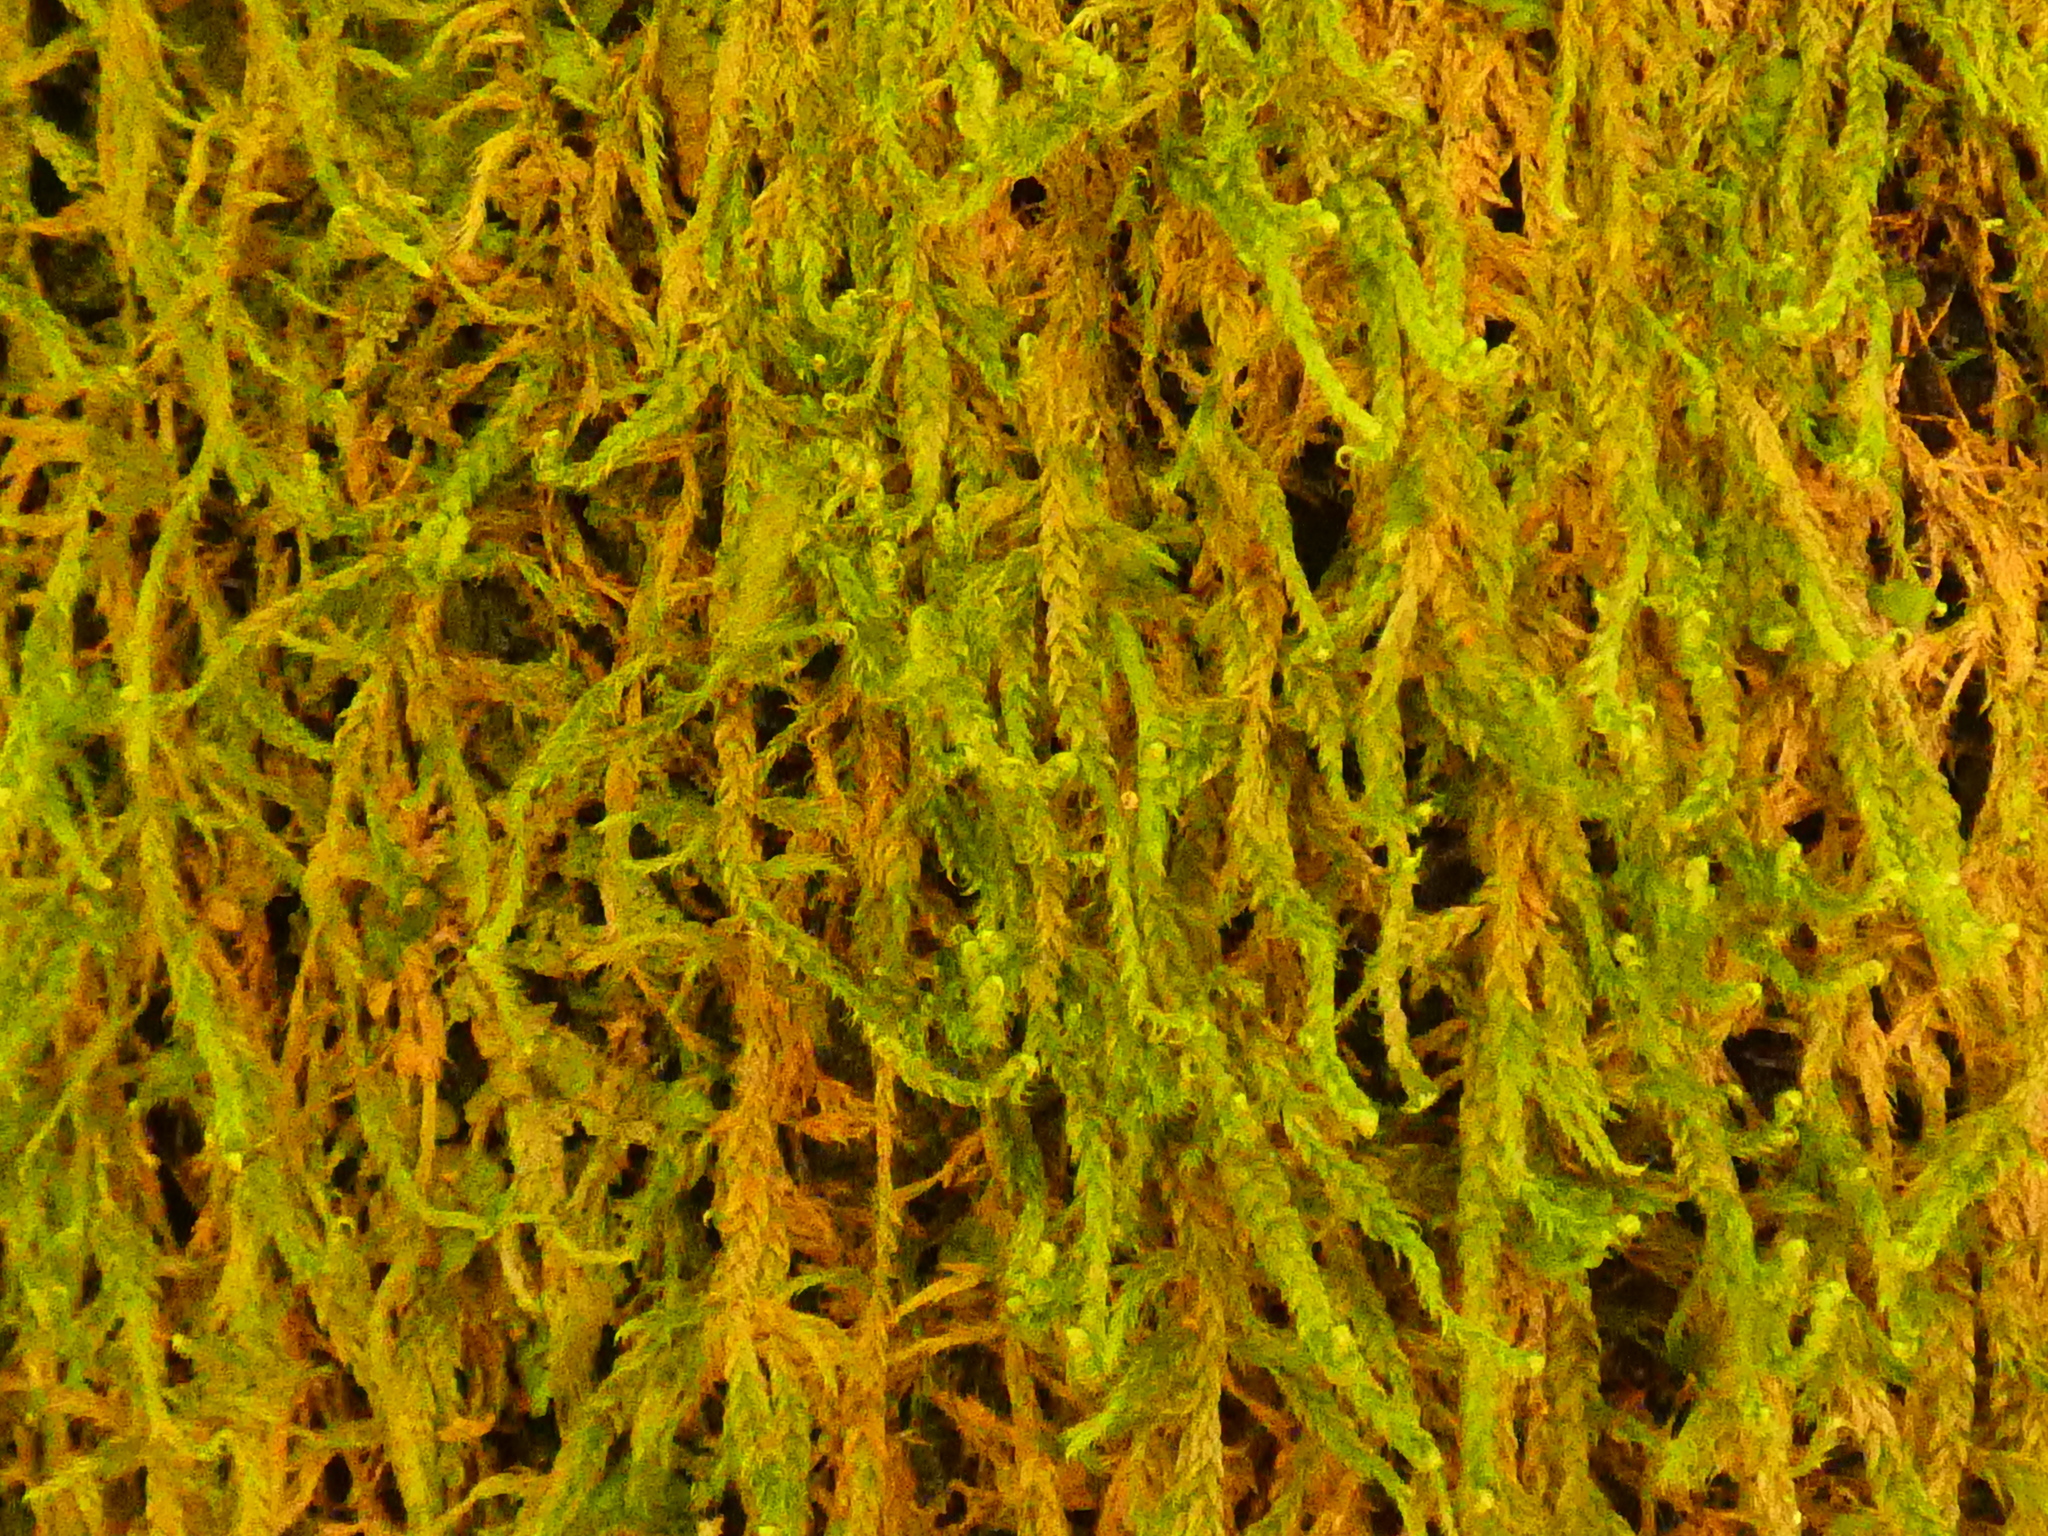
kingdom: Plantae
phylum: Bryophyta
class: Bryopsida
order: Hypnales
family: Hypnaceae
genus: Hypnum
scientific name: Hypnum cupressiforme
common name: Cypress-leaved plait-moss
